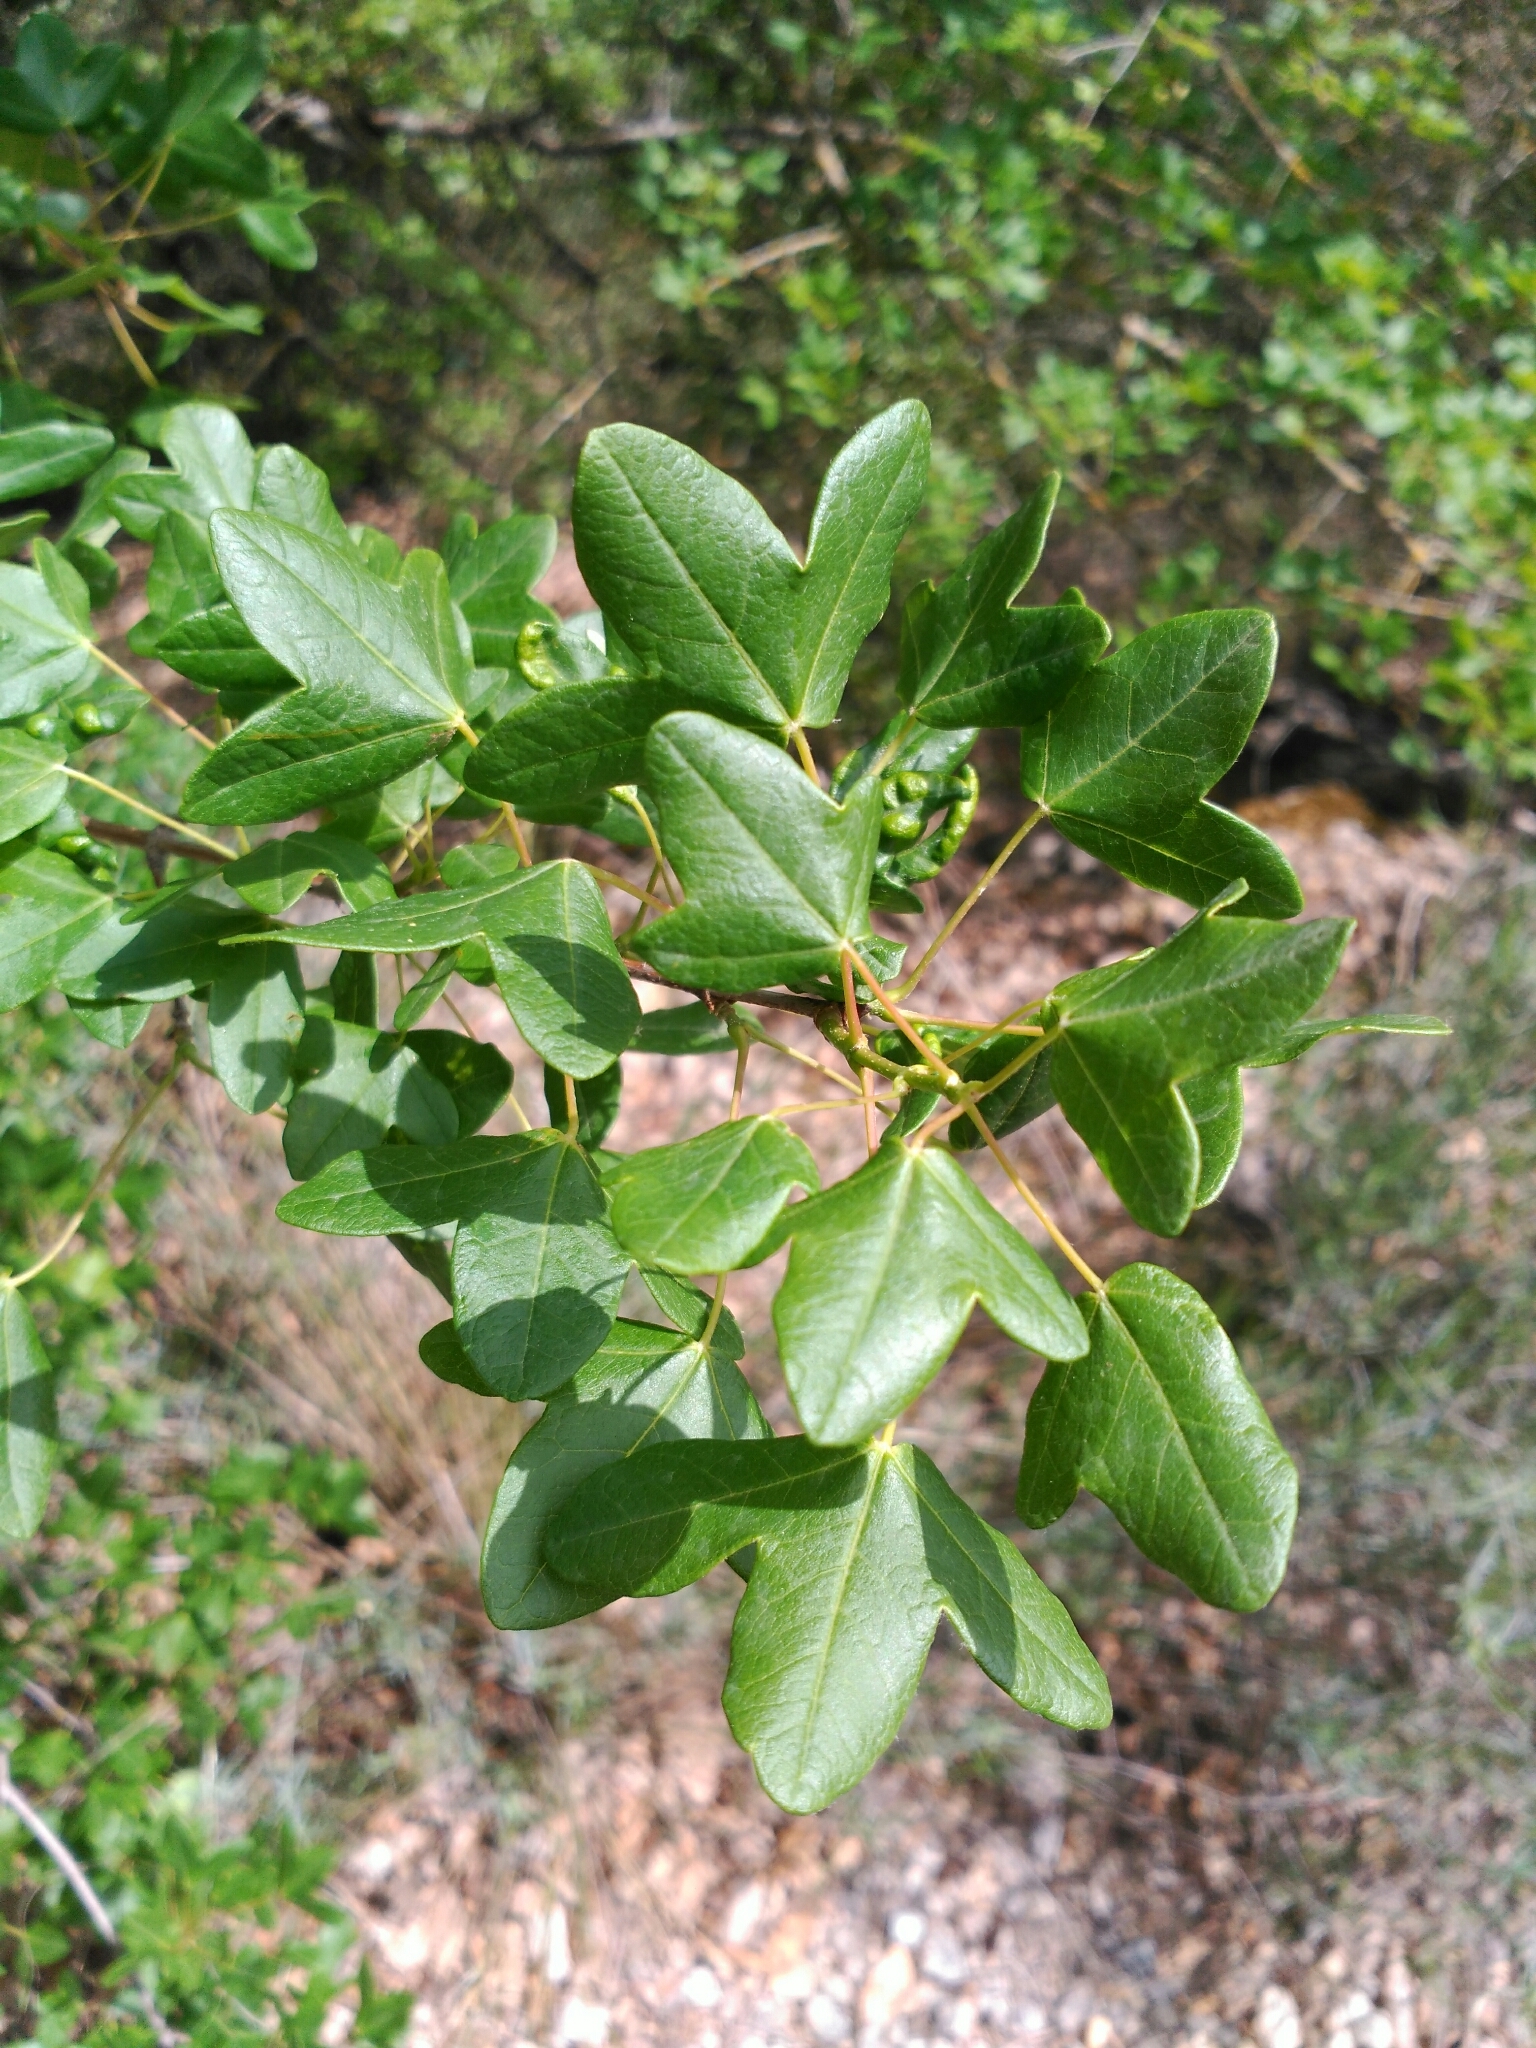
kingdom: Plantae
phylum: Tracheophyta
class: Magnoliopsida
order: Sapindales
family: Sapindaceae
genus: Acer
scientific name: Acer monspessulanum
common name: Montpellier maple
